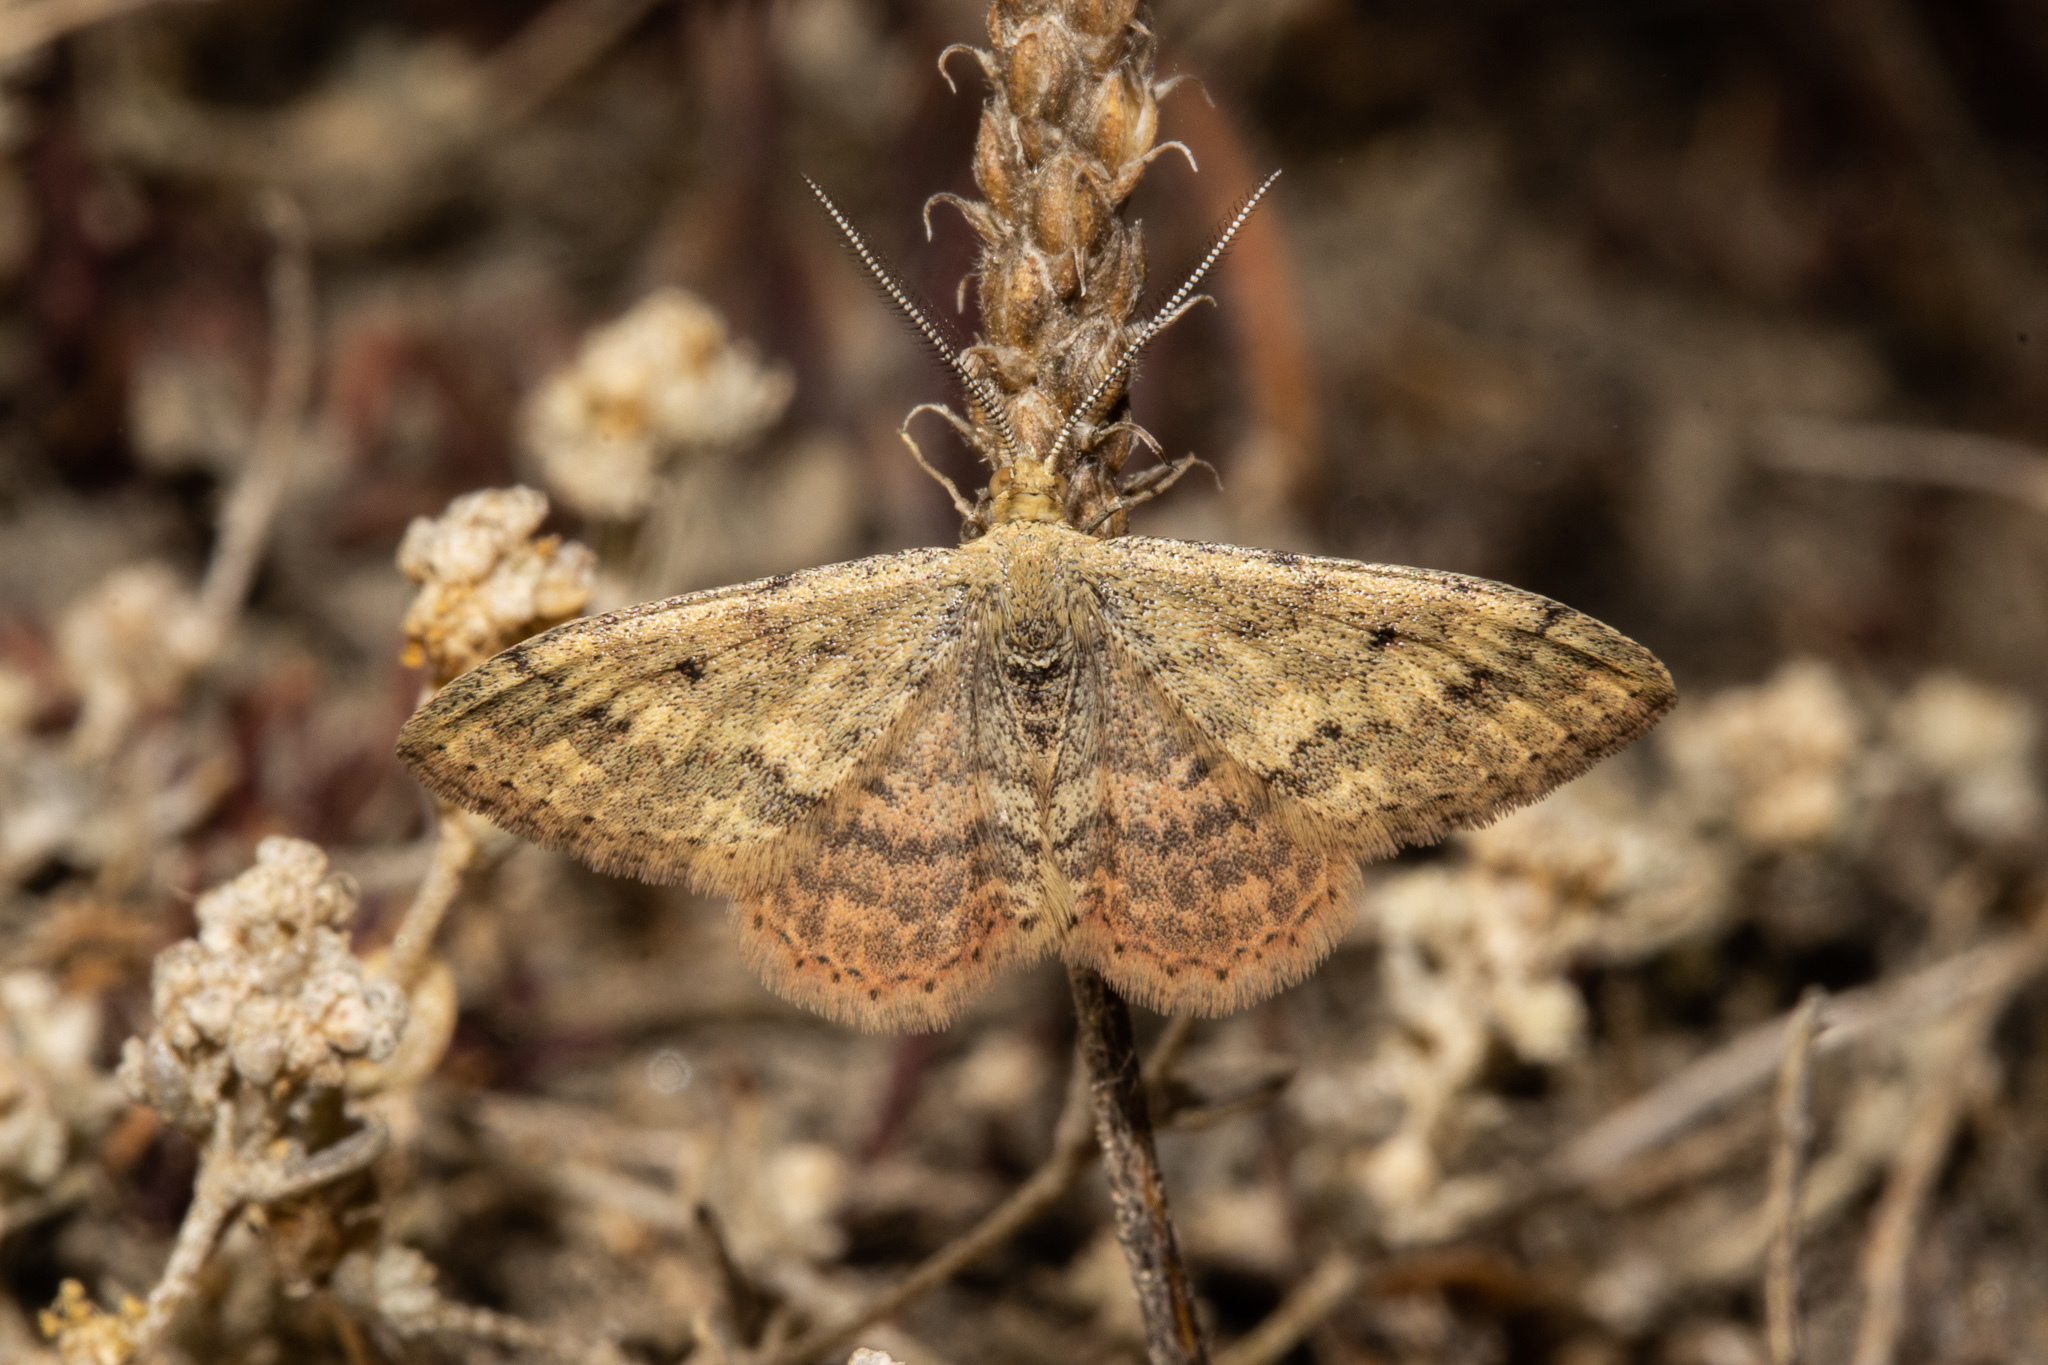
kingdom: Animalia
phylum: Arthropoda
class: Insecta
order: Lepidoptera
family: Geometridae
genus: Scopula
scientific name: Scopula rubraria
